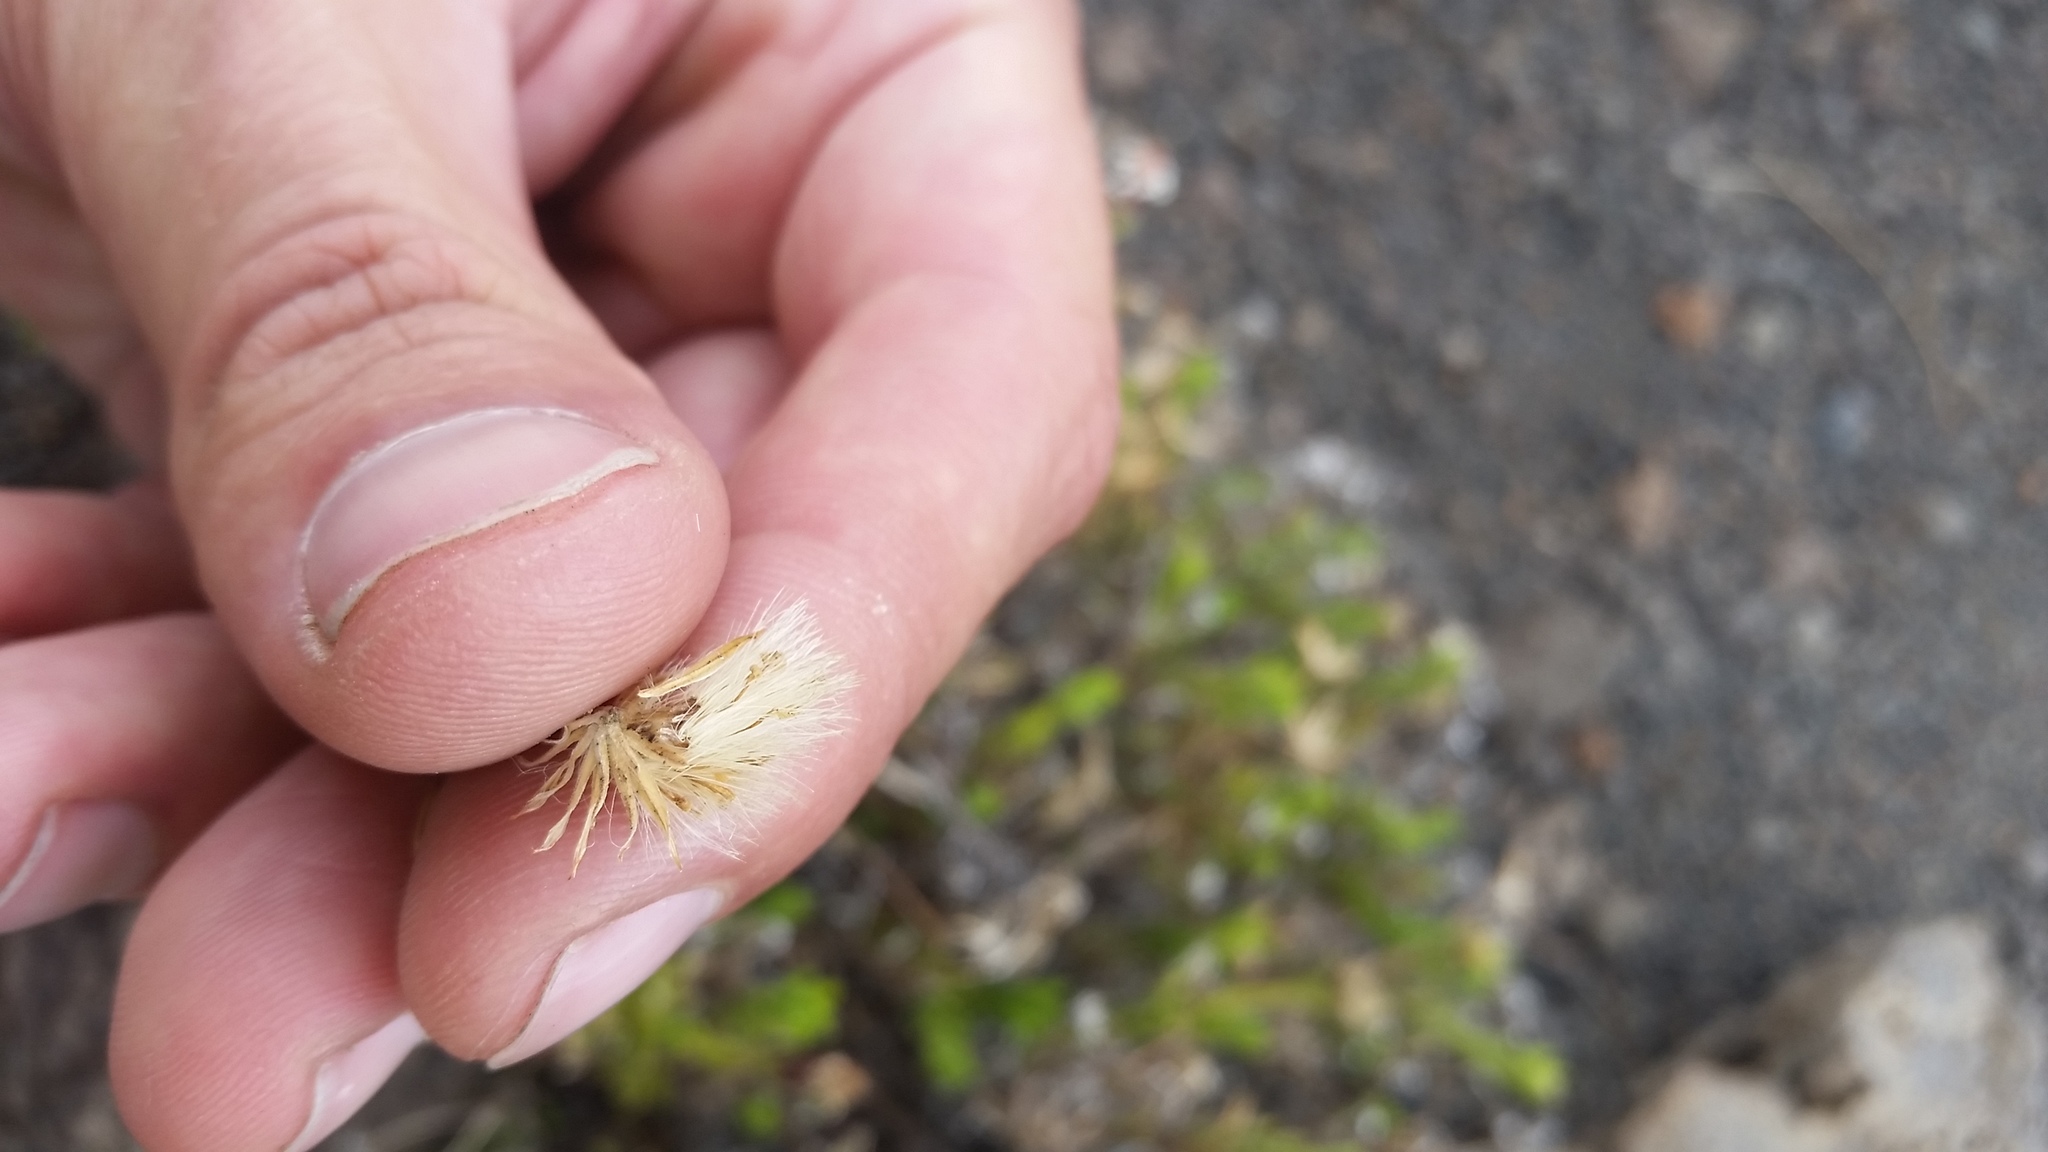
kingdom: Plantae
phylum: Tracheophyta
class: Magnoliopsida
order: Asterales
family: Asteraceae
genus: Tetramolopium
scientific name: Tetramolopium humile
